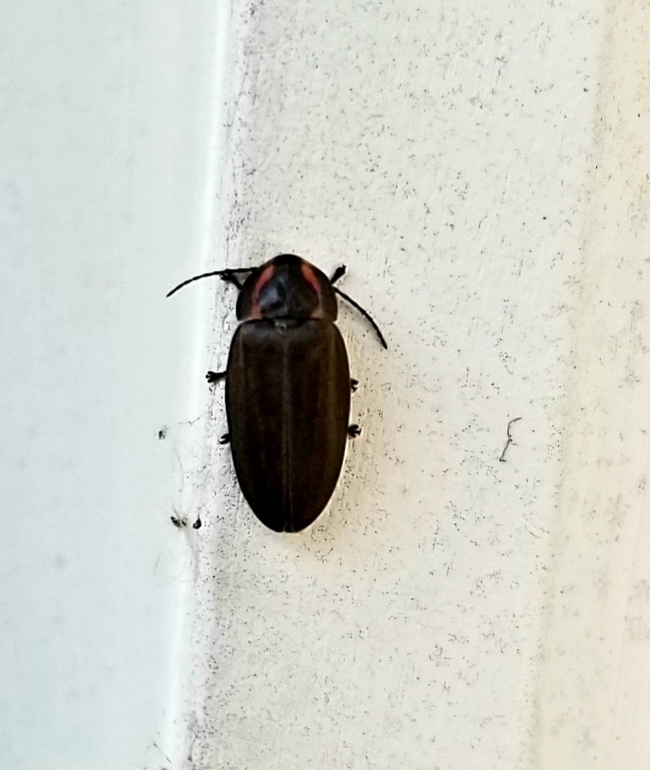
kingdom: Animalia
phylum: Arthropoda
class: Insecta
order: Coleoptera
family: Lampyridae
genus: Photinus
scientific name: Photinus corrusca
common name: Winter firefly
